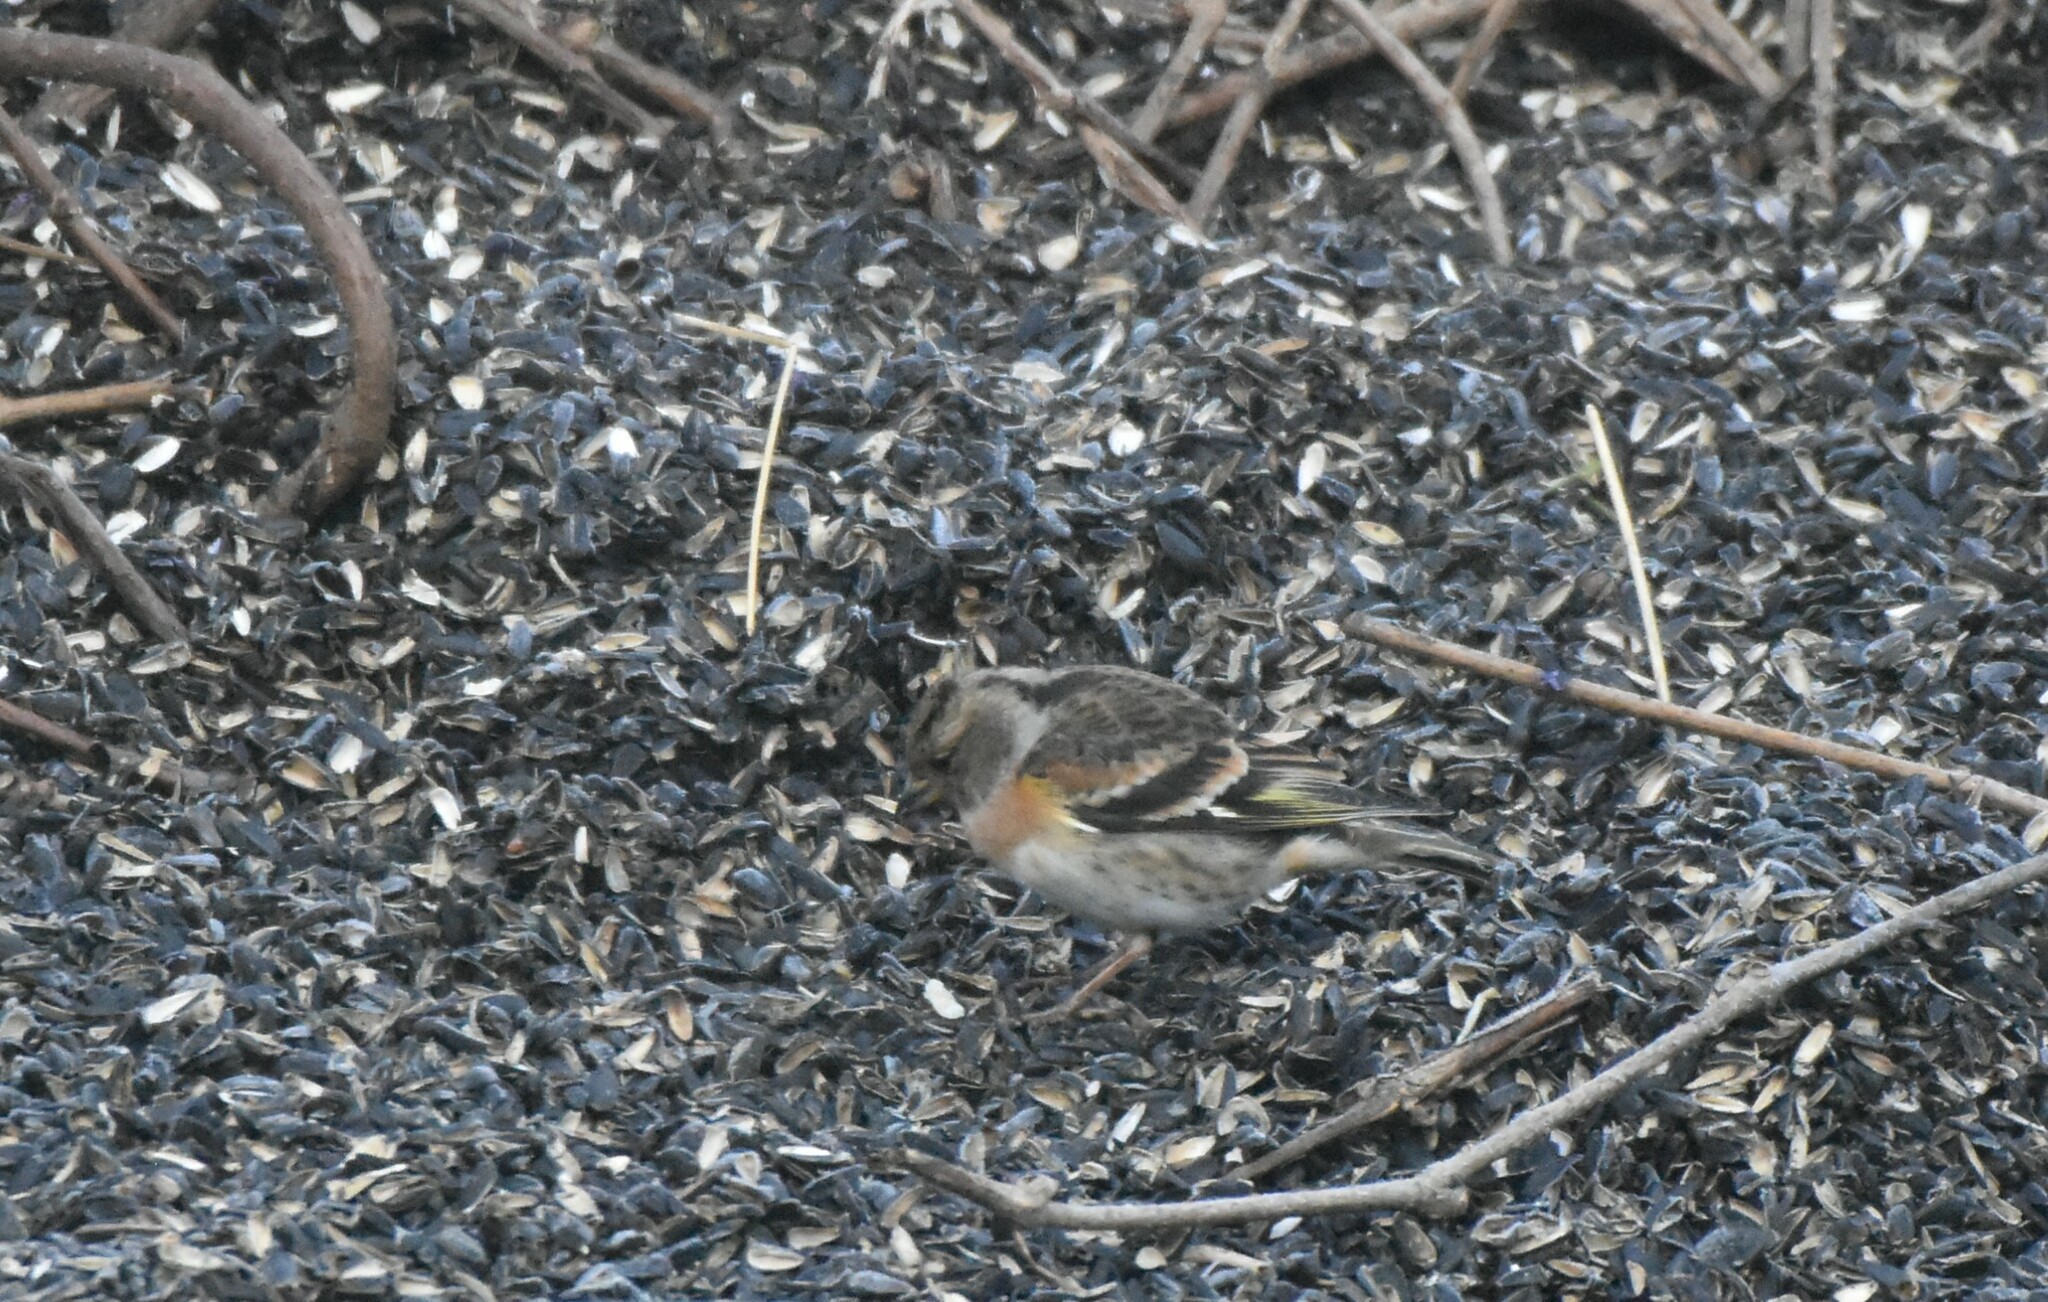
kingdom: Animalia
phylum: Chordata
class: Aves
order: Passeriformes
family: Fringillidae
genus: Fringilla
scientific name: Fringilla montifringilla
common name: Brambling
